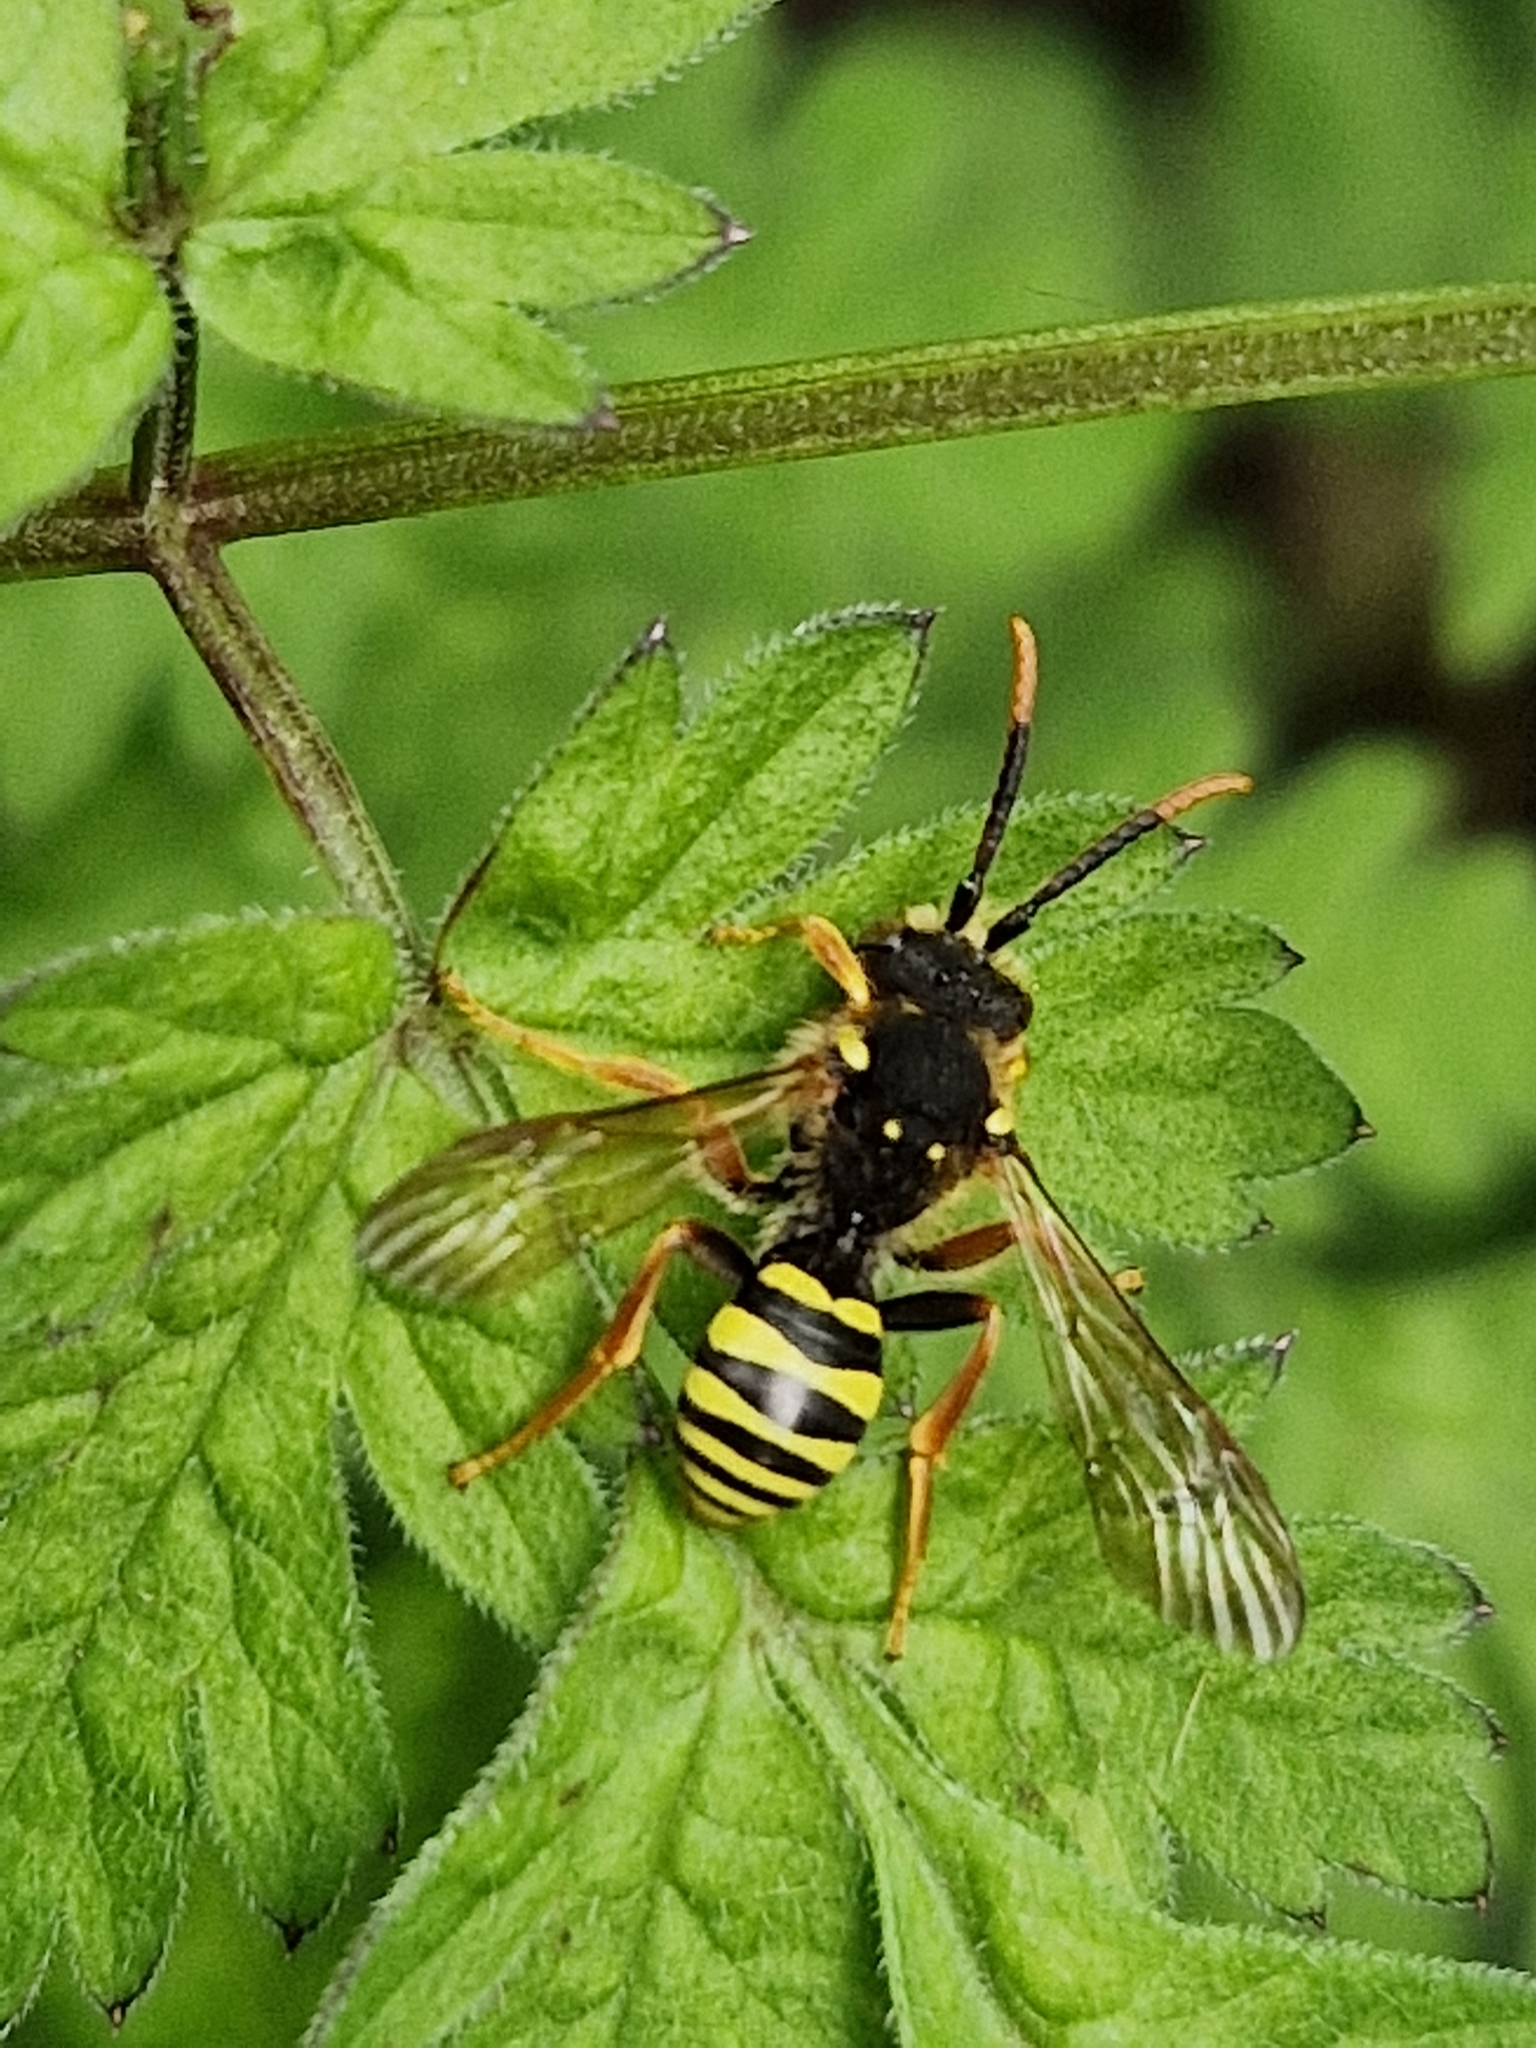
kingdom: Animalia
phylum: Arthropoda
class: Insecta
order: Hymenoptera
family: Apidae
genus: Nomada
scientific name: Nomada goodeniana
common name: Gooden's nomad bee
